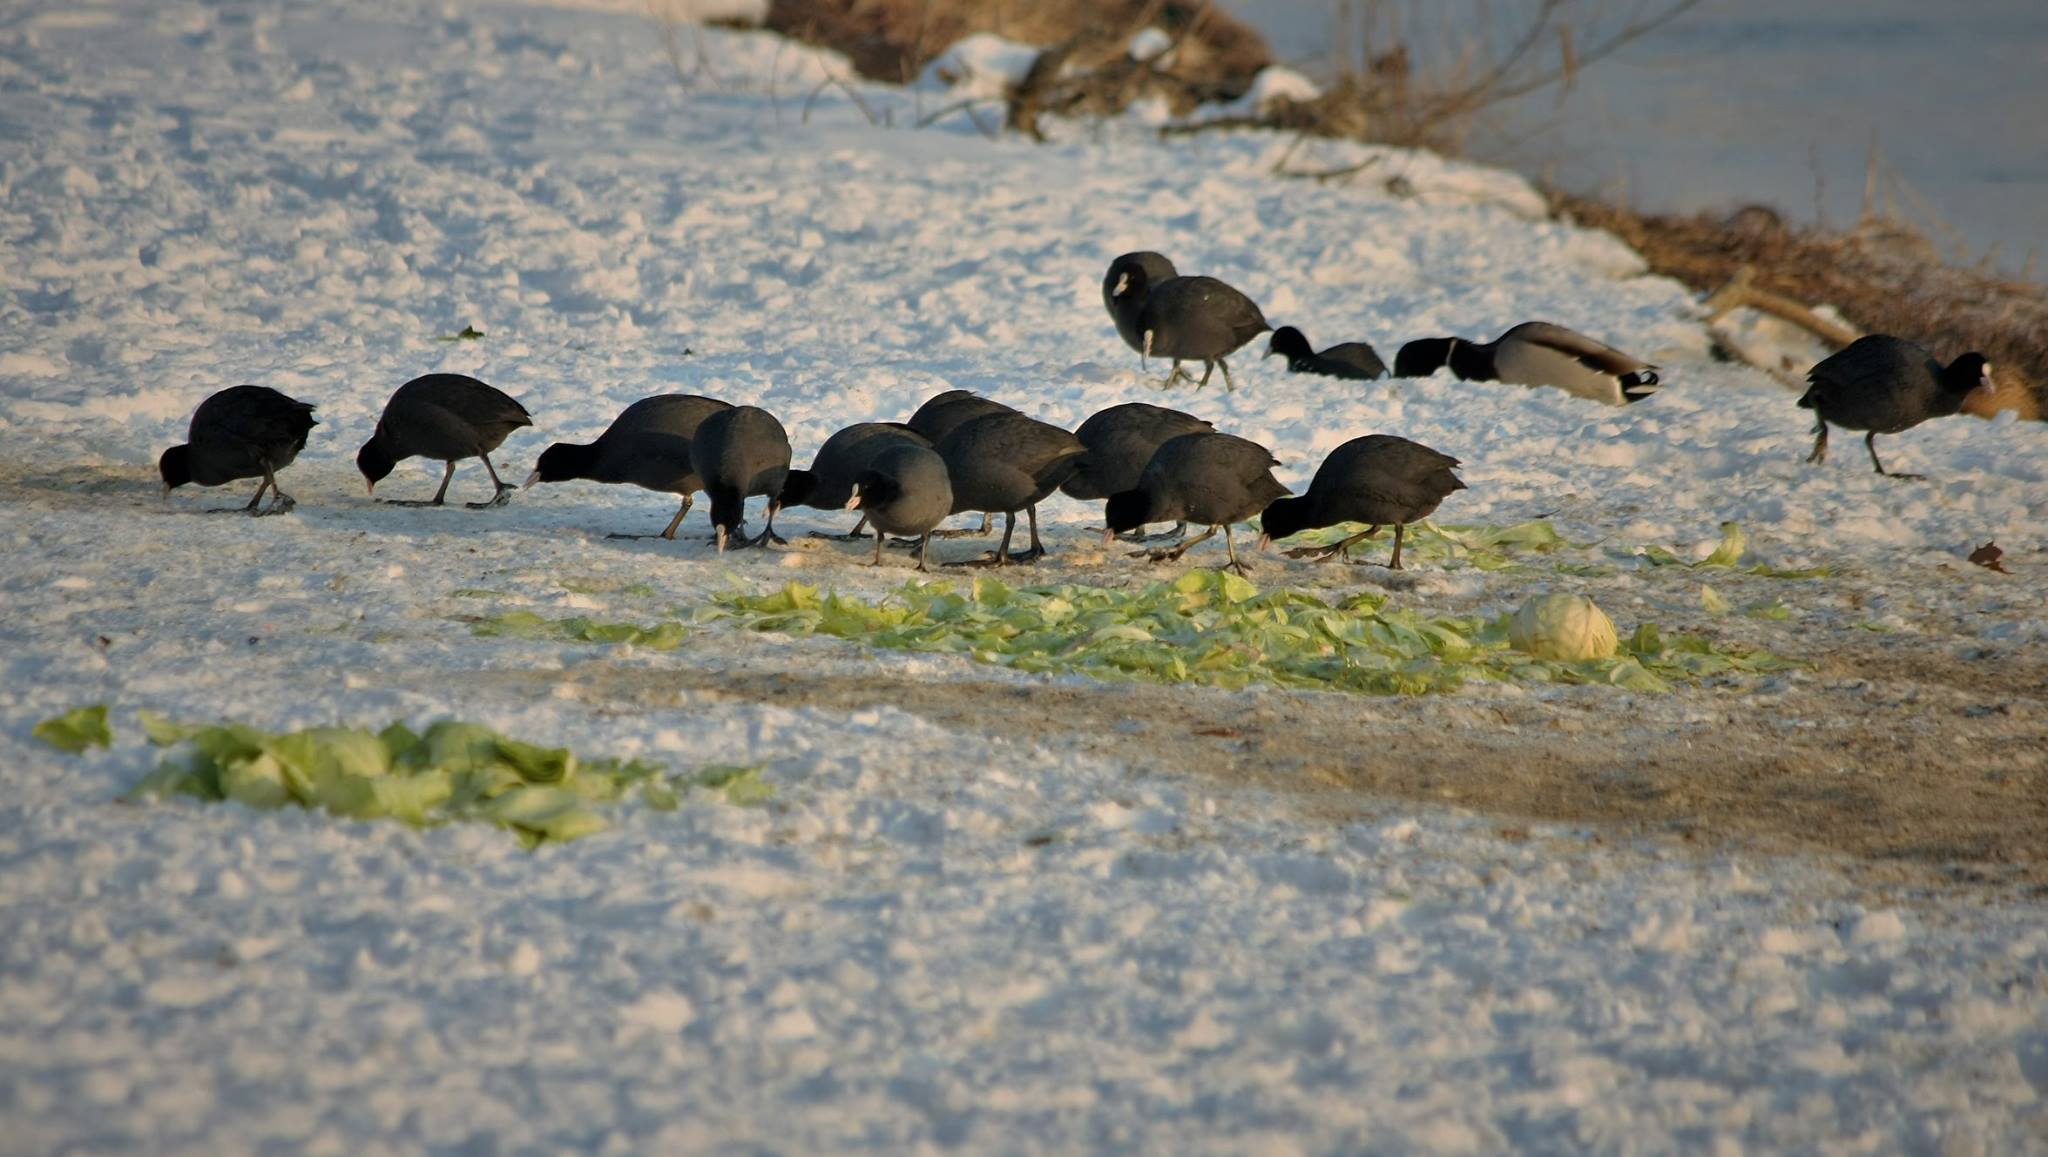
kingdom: Animalia
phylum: Chordata
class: Aves
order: Gruiformes
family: Rallidae
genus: Fulica
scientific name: Fulica atra
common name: Eurasian coot
